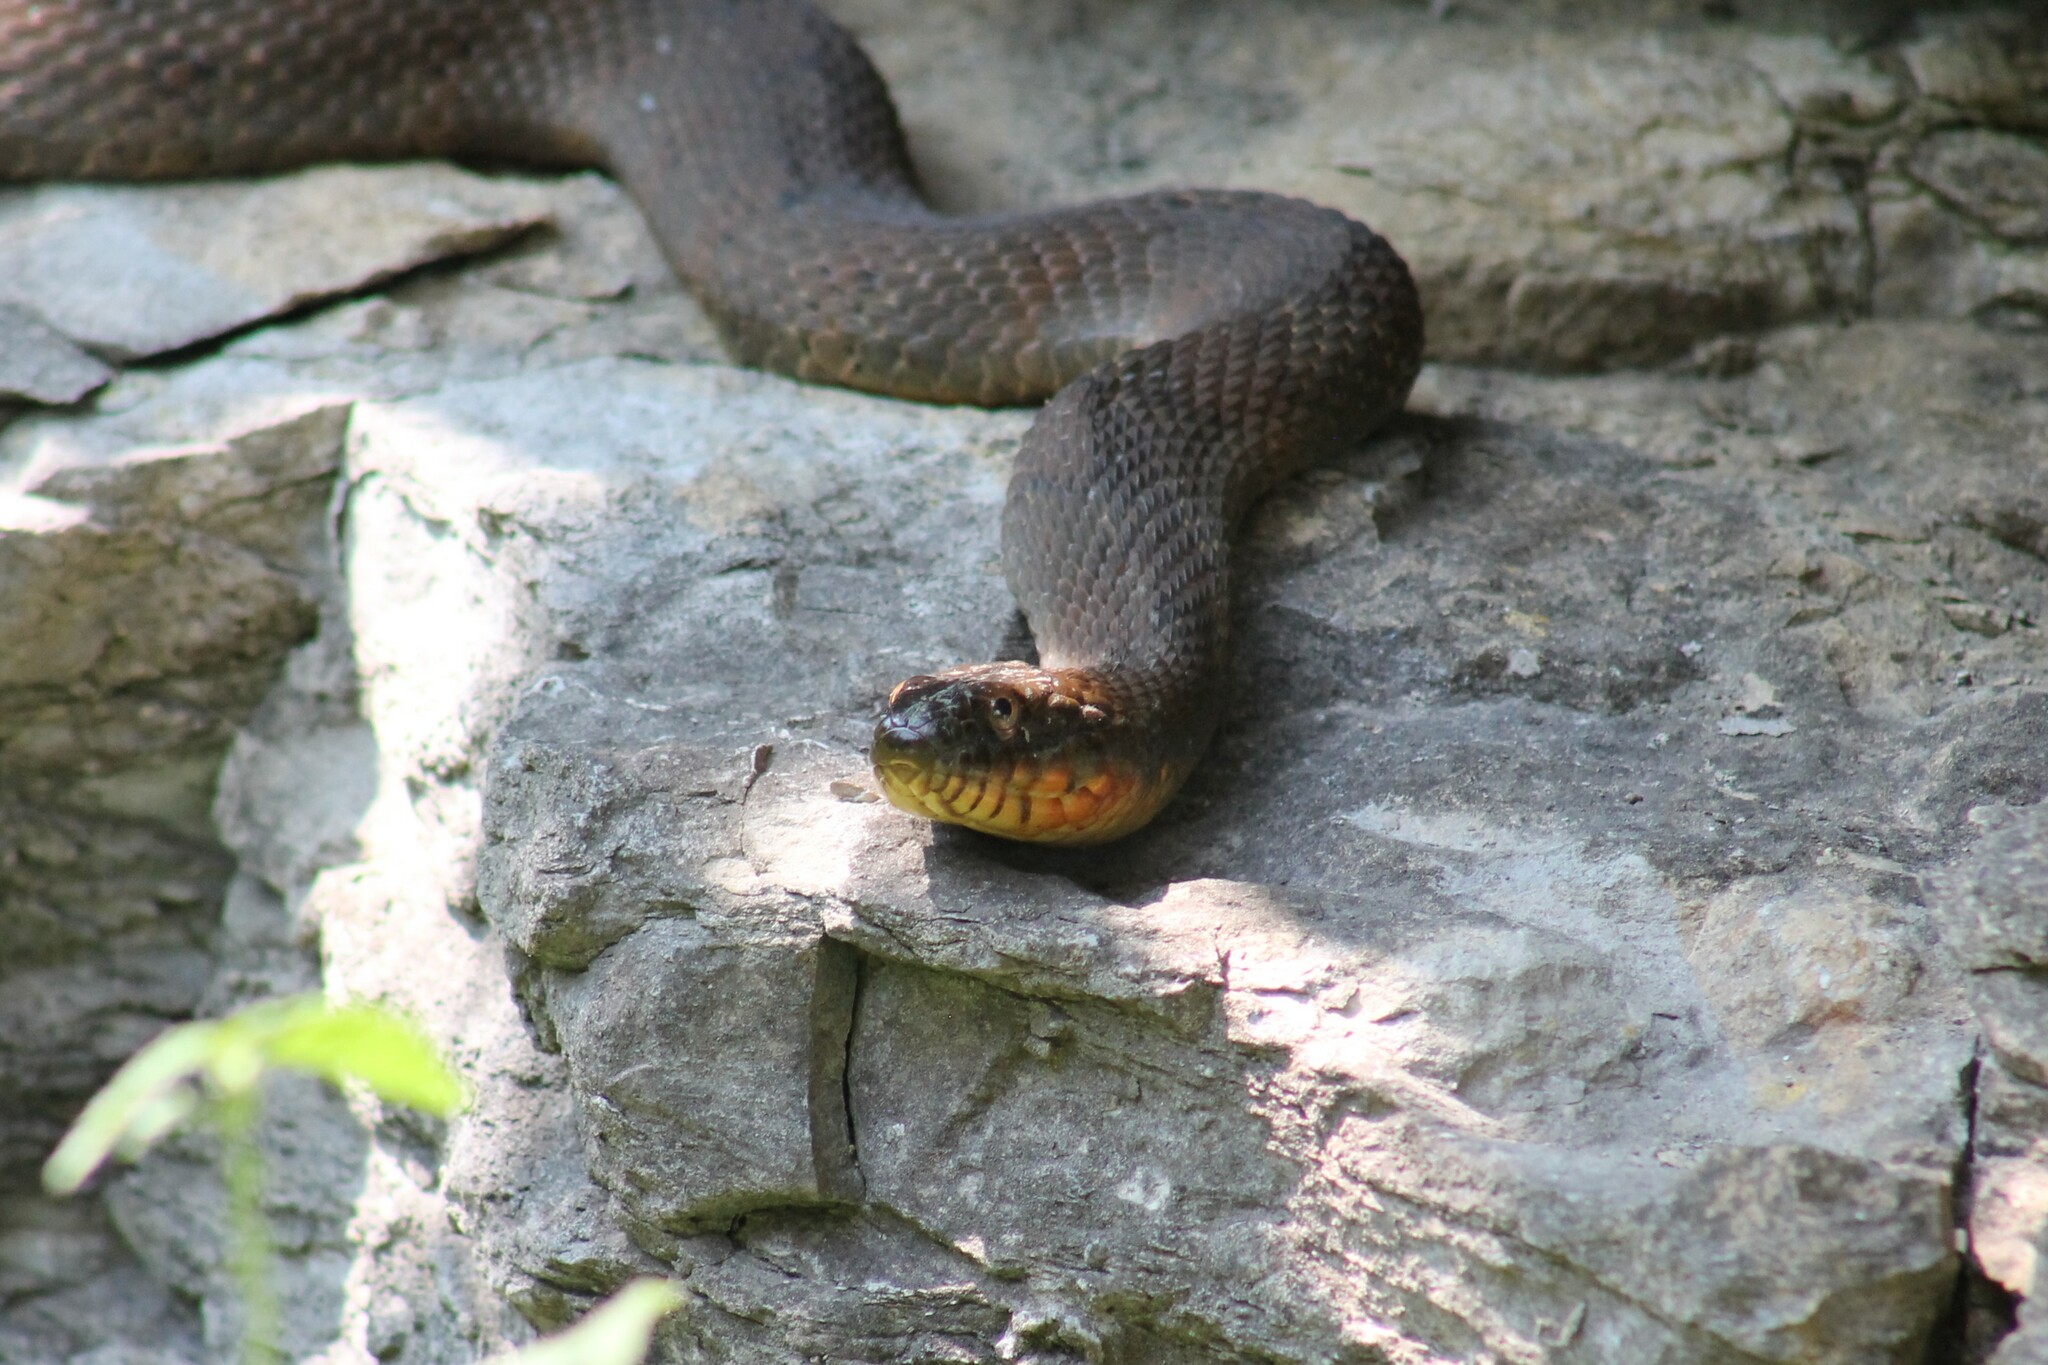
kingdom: Animalia
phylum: Chordata
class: Squamata
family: Colubridae
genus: Nerodia
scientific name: Nerodia erythrogaster
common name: Plainbelly water snake
